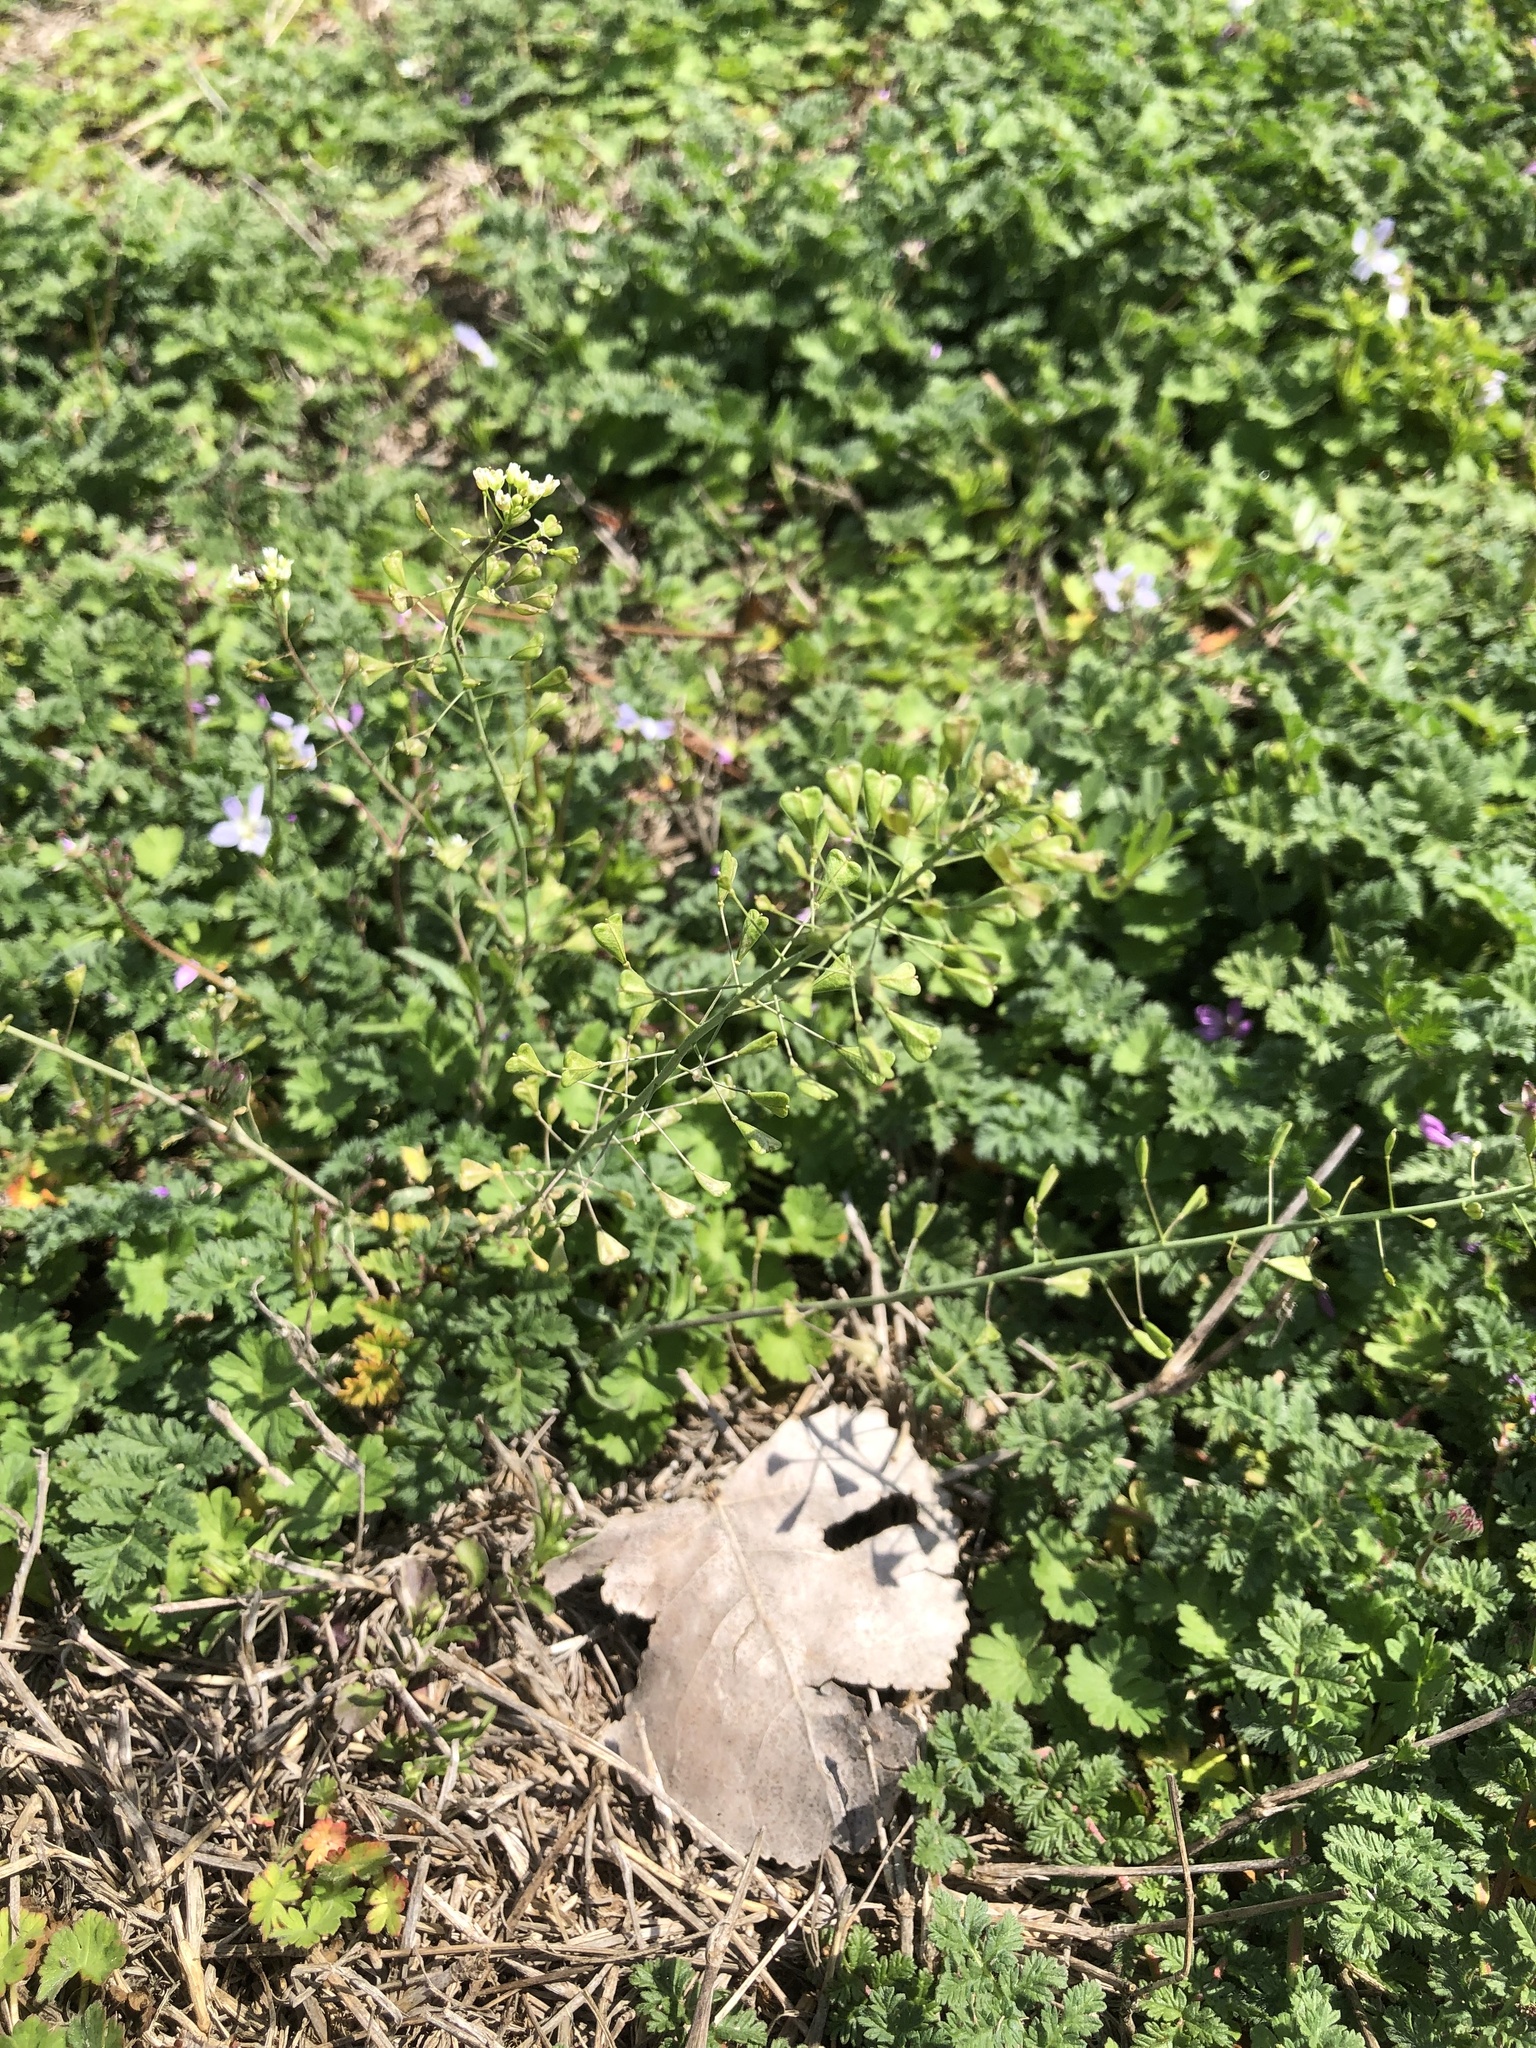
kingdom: Plantae
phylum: Tracheophyta
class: Magnoliopsida
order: Brassicales
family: Brassicaceae
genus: Capsella
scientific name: Capsella bursa-pastoris
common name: Shepherd's purse
